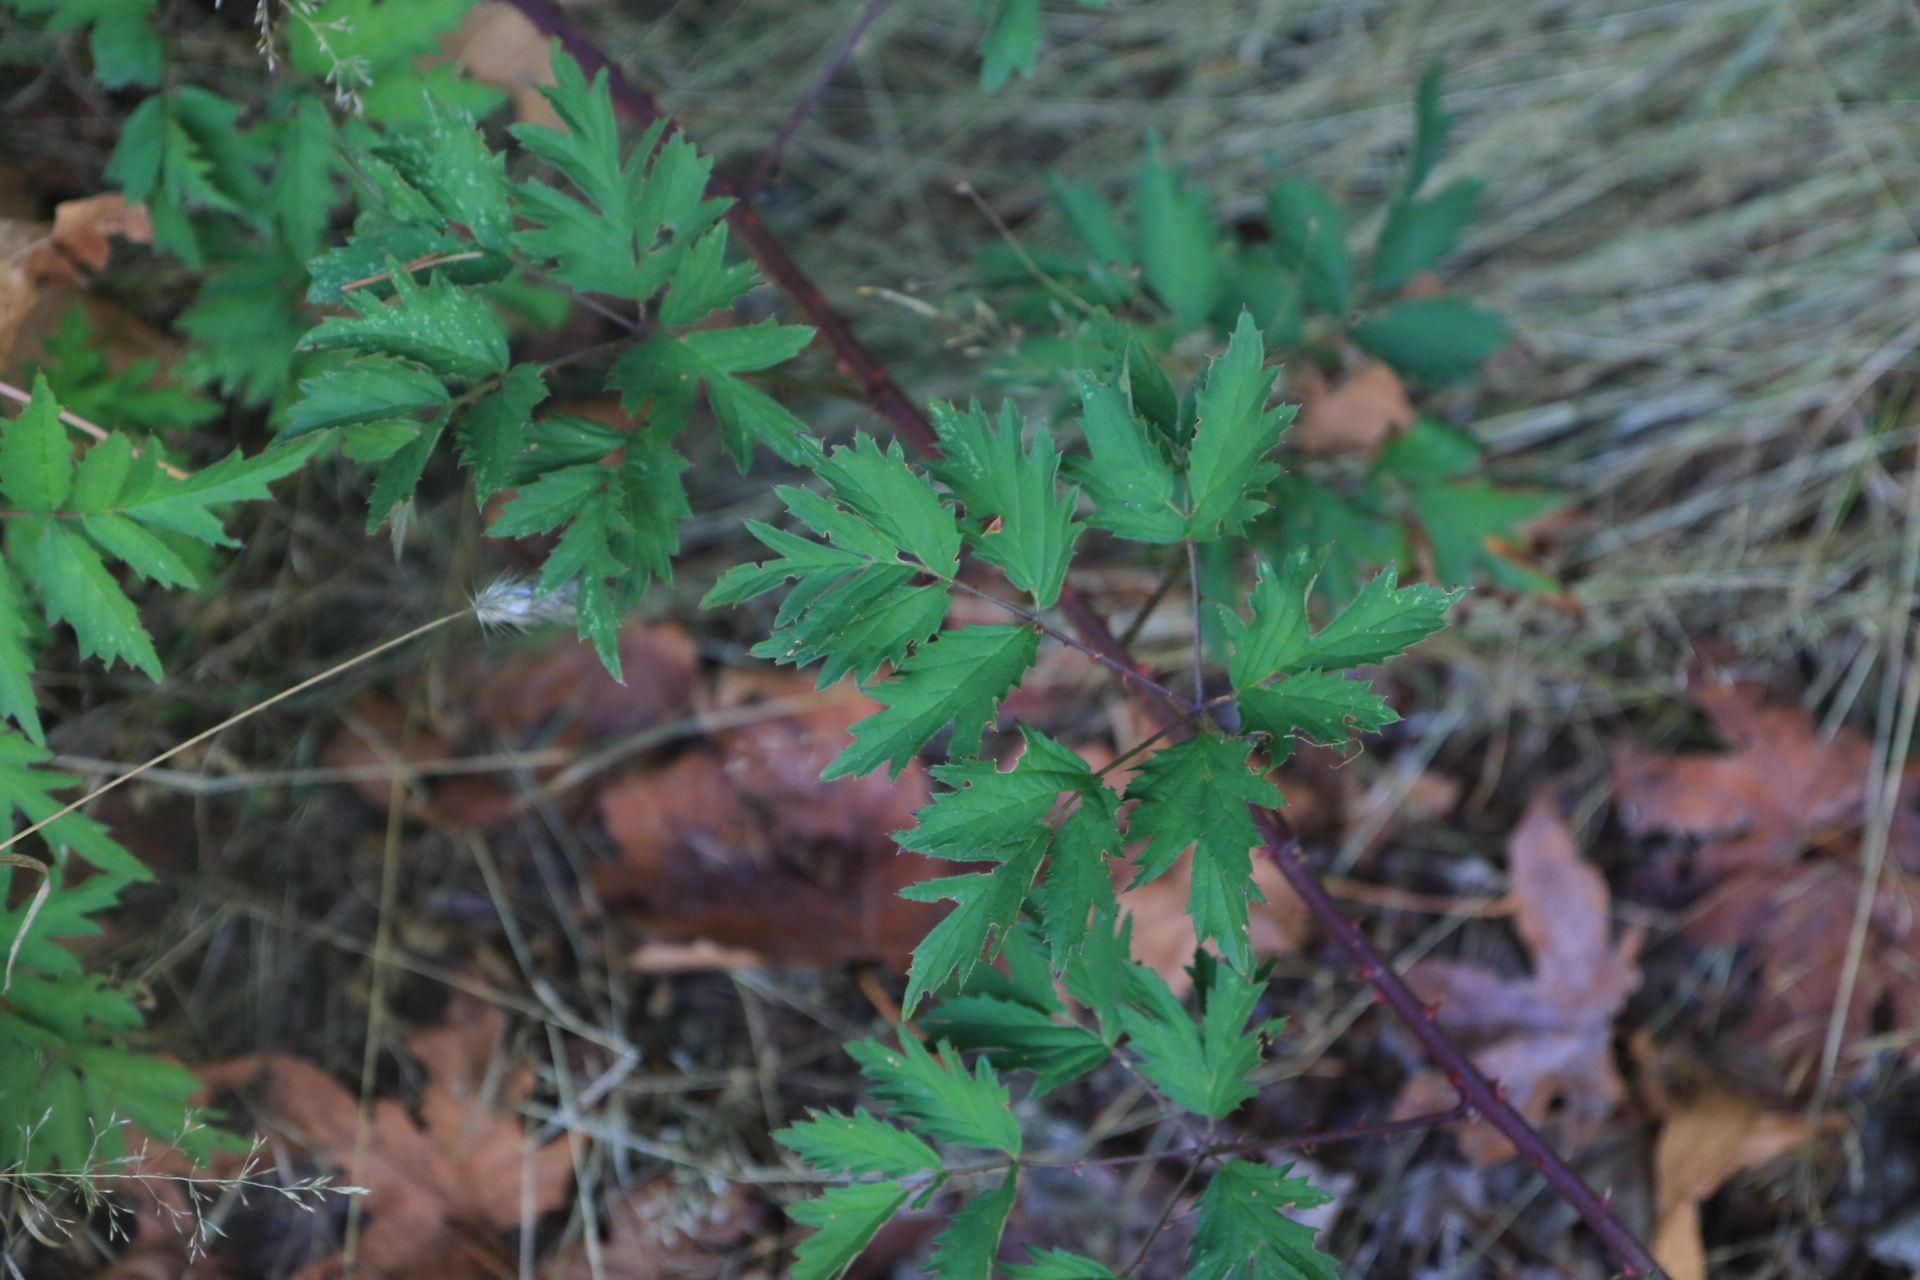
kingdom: Plantae
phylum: Tracheophyta
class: Magnoliopsida
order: Rosales
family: Rosaceae
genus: Rubus
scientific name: Rubus laciniatus
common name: Evergreen blackberry
